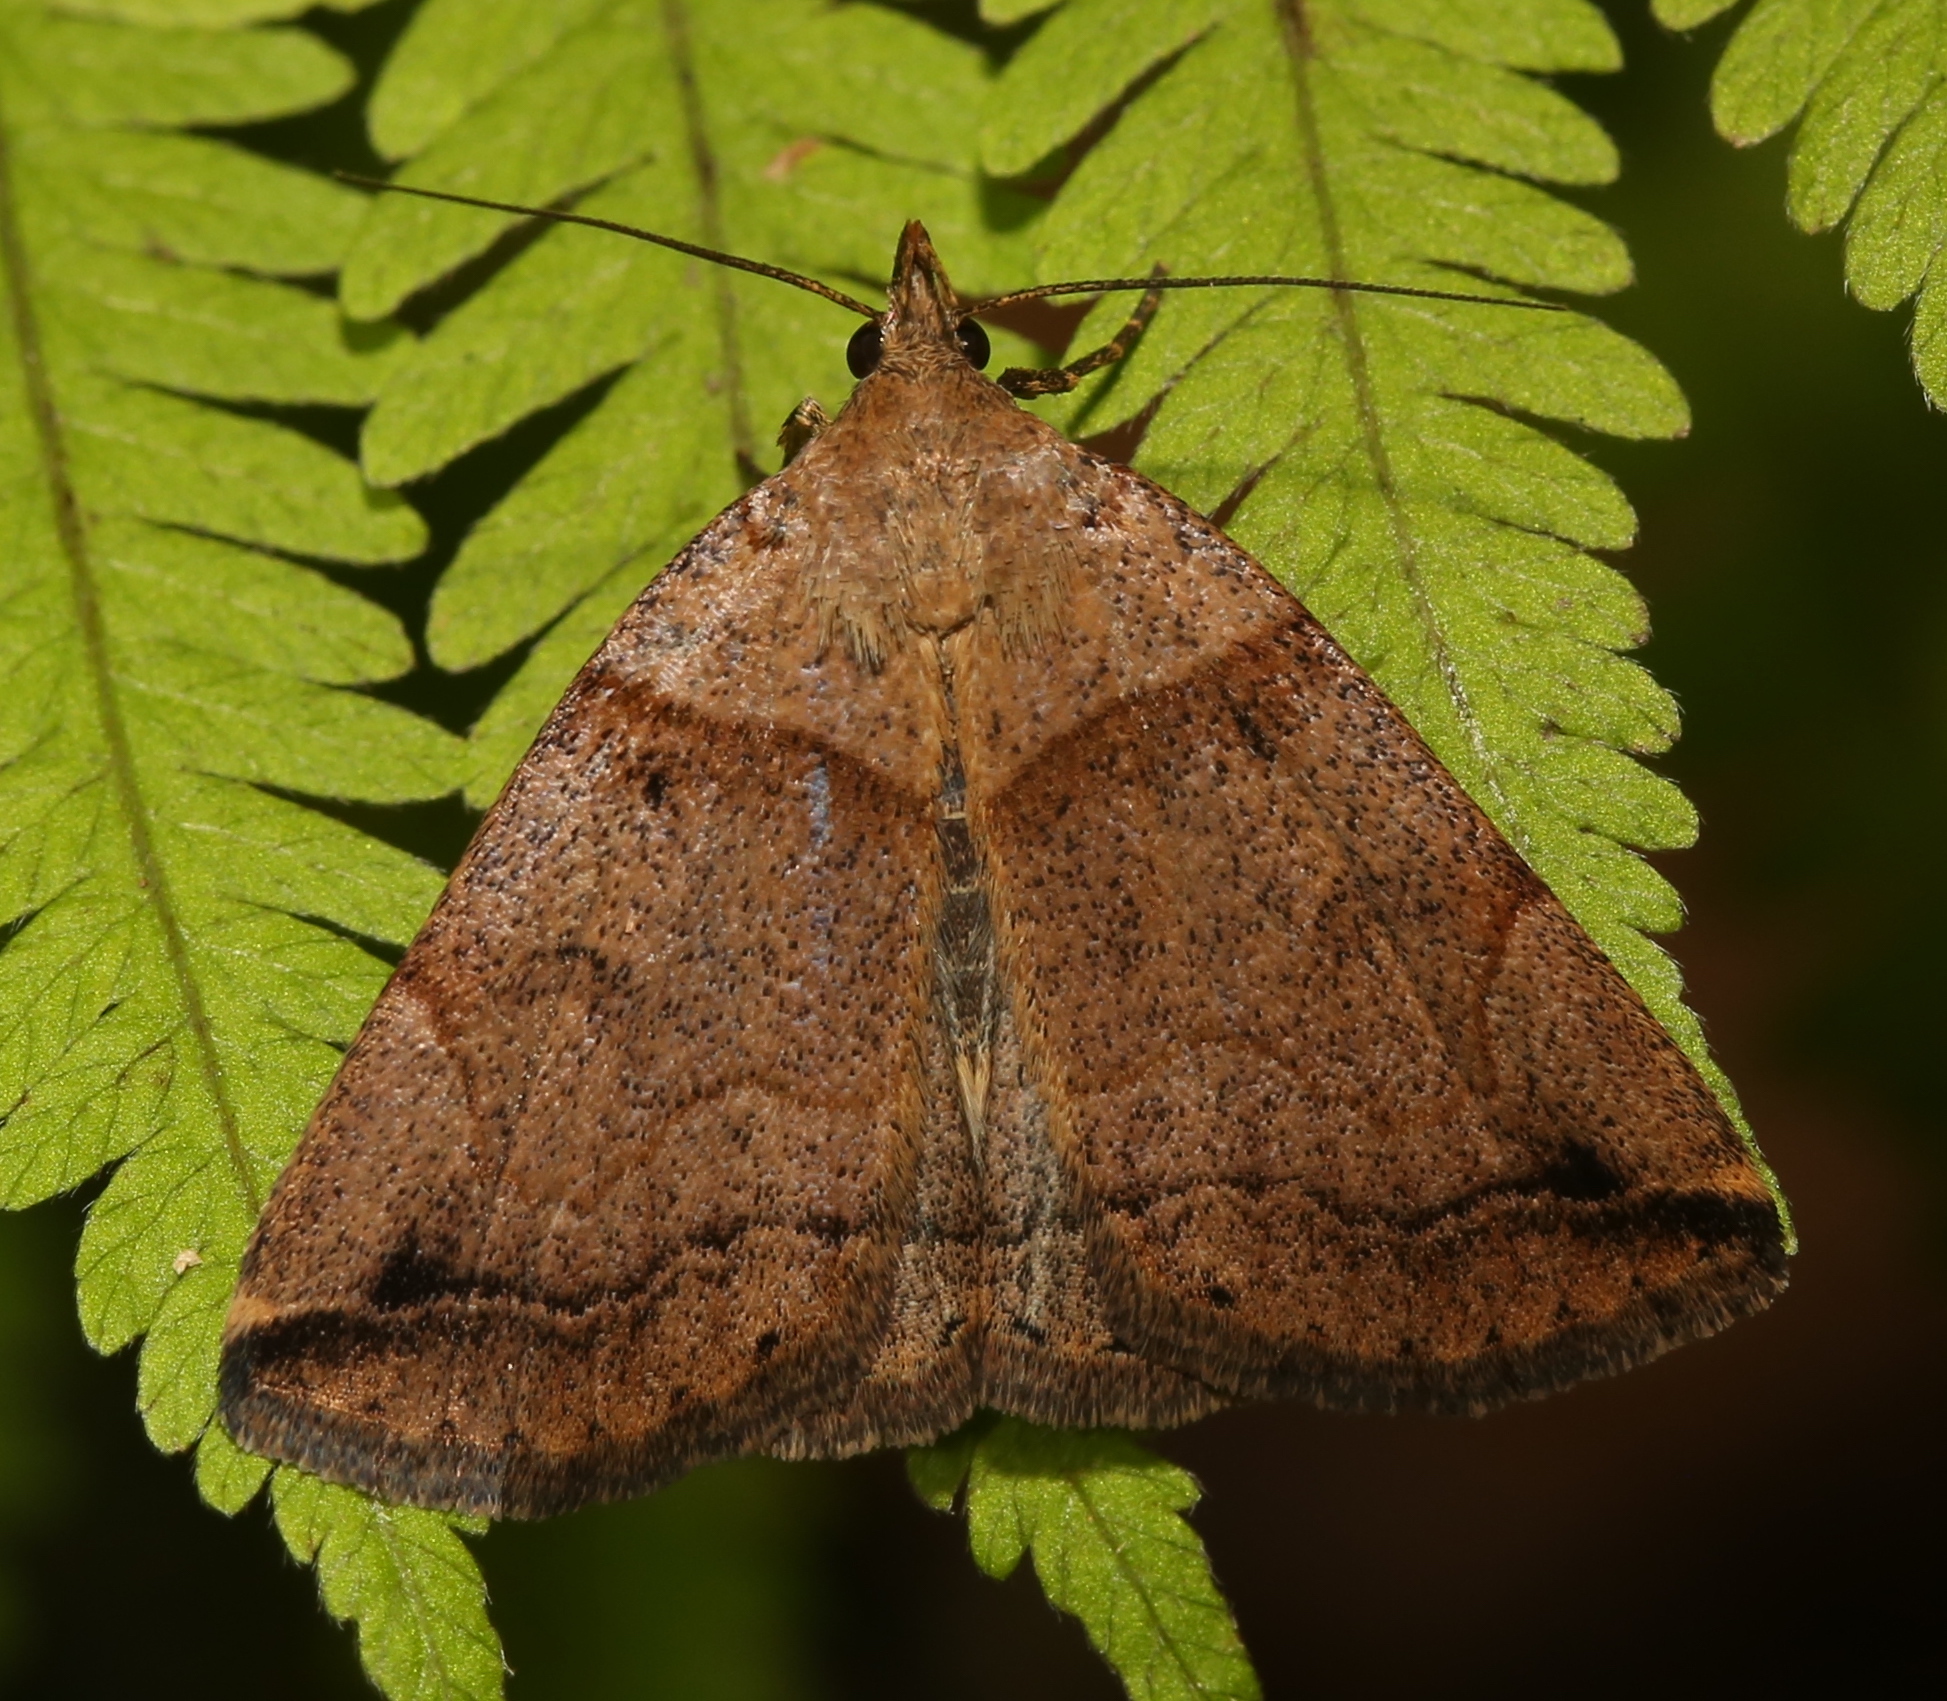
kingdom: Animalia
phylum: Arthropoda
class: Insecta
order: Lepidoptera
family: Erebidae
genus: Zanclognatha
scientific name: Zanclognatha laevigata
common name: Variable fan-foot
